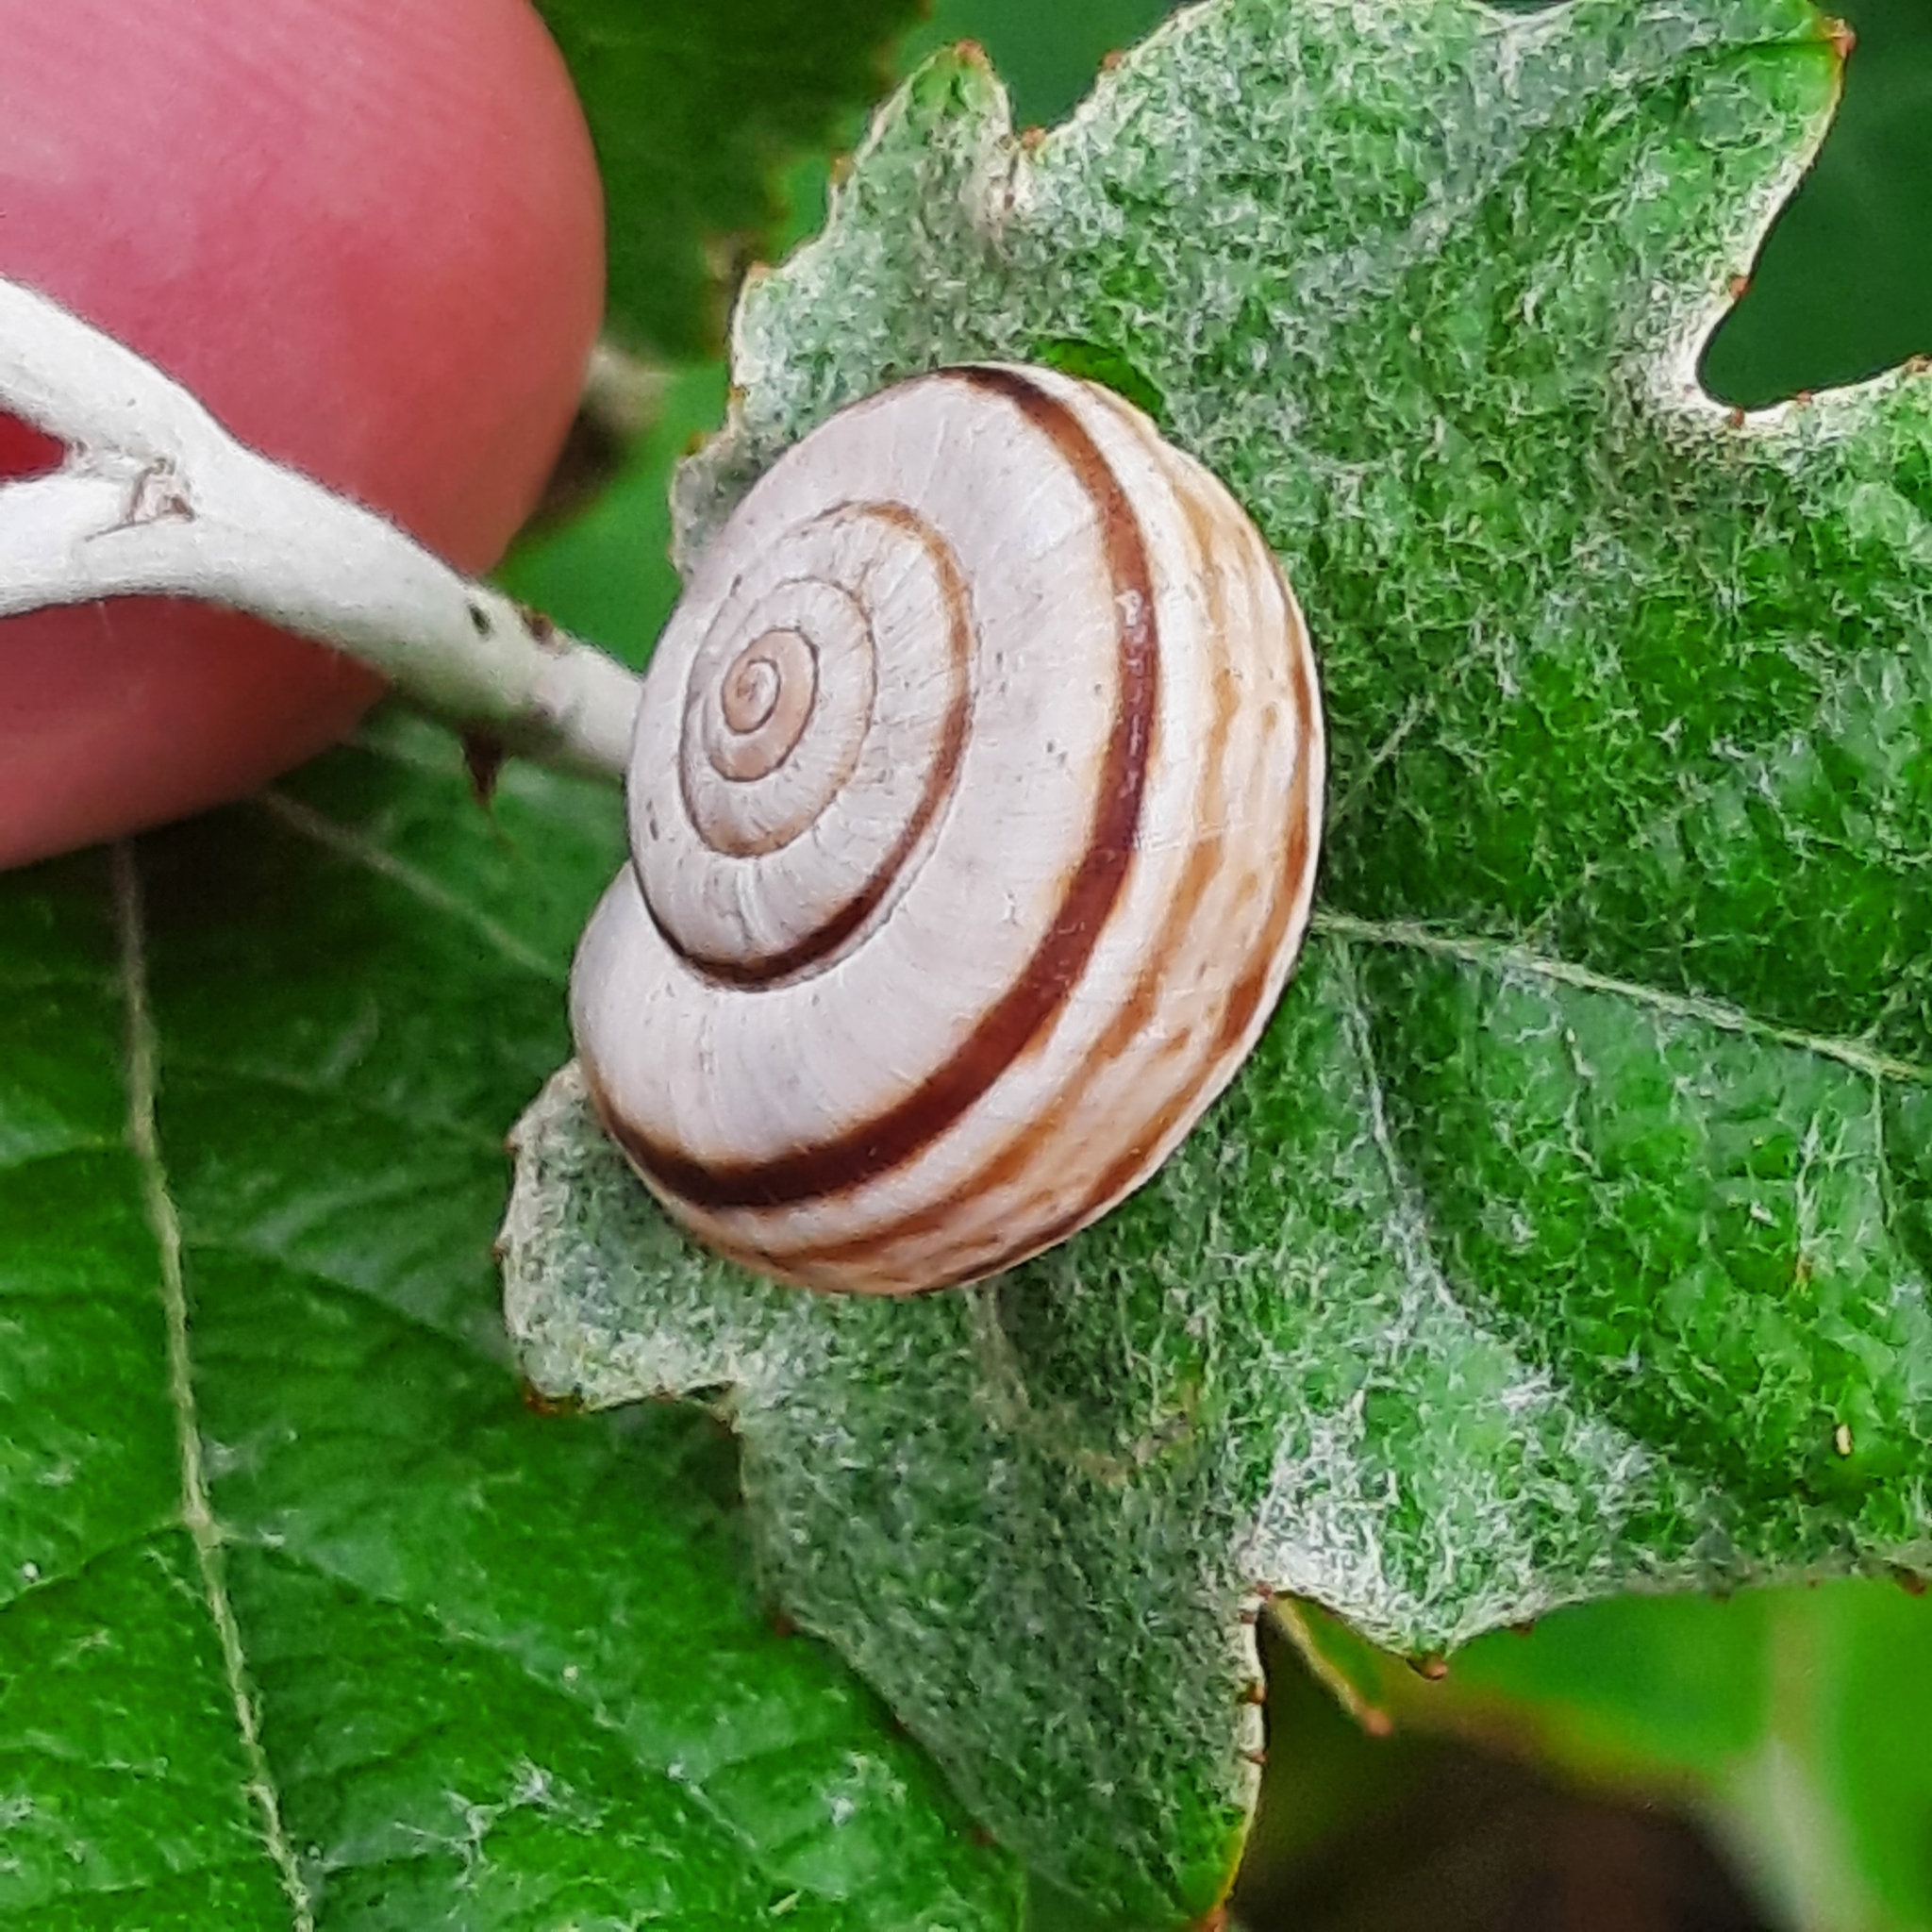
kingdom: Animalia
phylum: Mollusca
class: Gastropoda
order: Stylommatophora
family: Geomitridae
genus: Xerolenta
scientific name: Xerolenta obvia
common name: White heath snail
